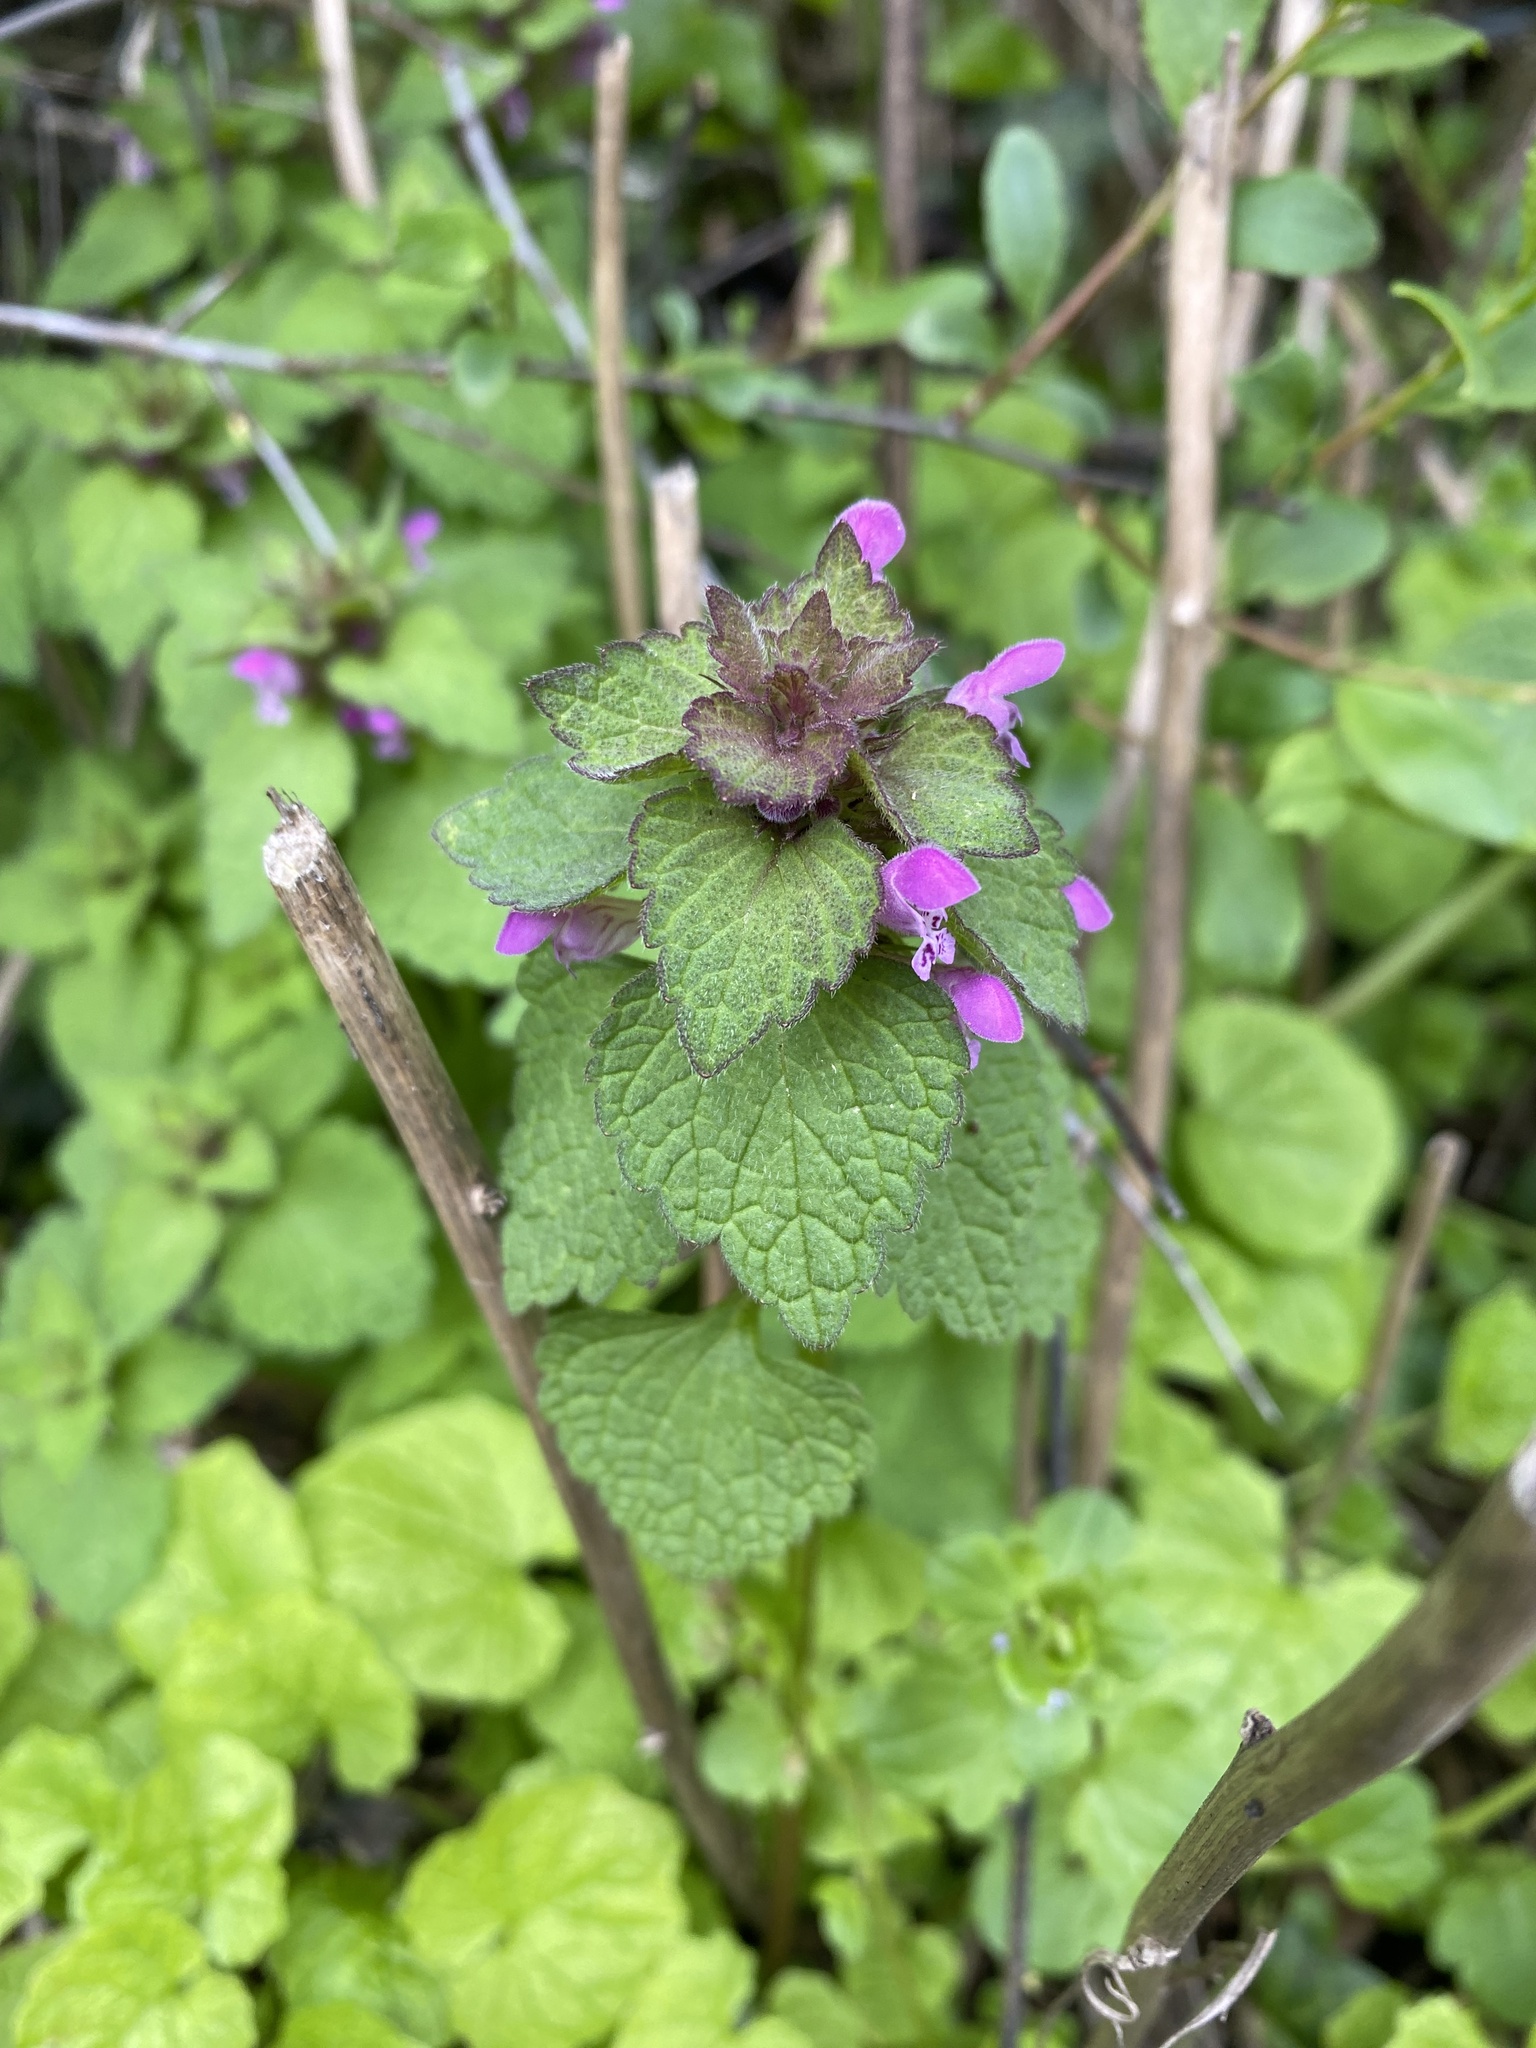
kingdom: Plantae
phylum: Tracheophyta
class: Magnoliopsida
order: Lamiales
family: Lamiaceae
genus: Lamium
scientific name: Lamium purpureum
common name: Red dead-nettle
